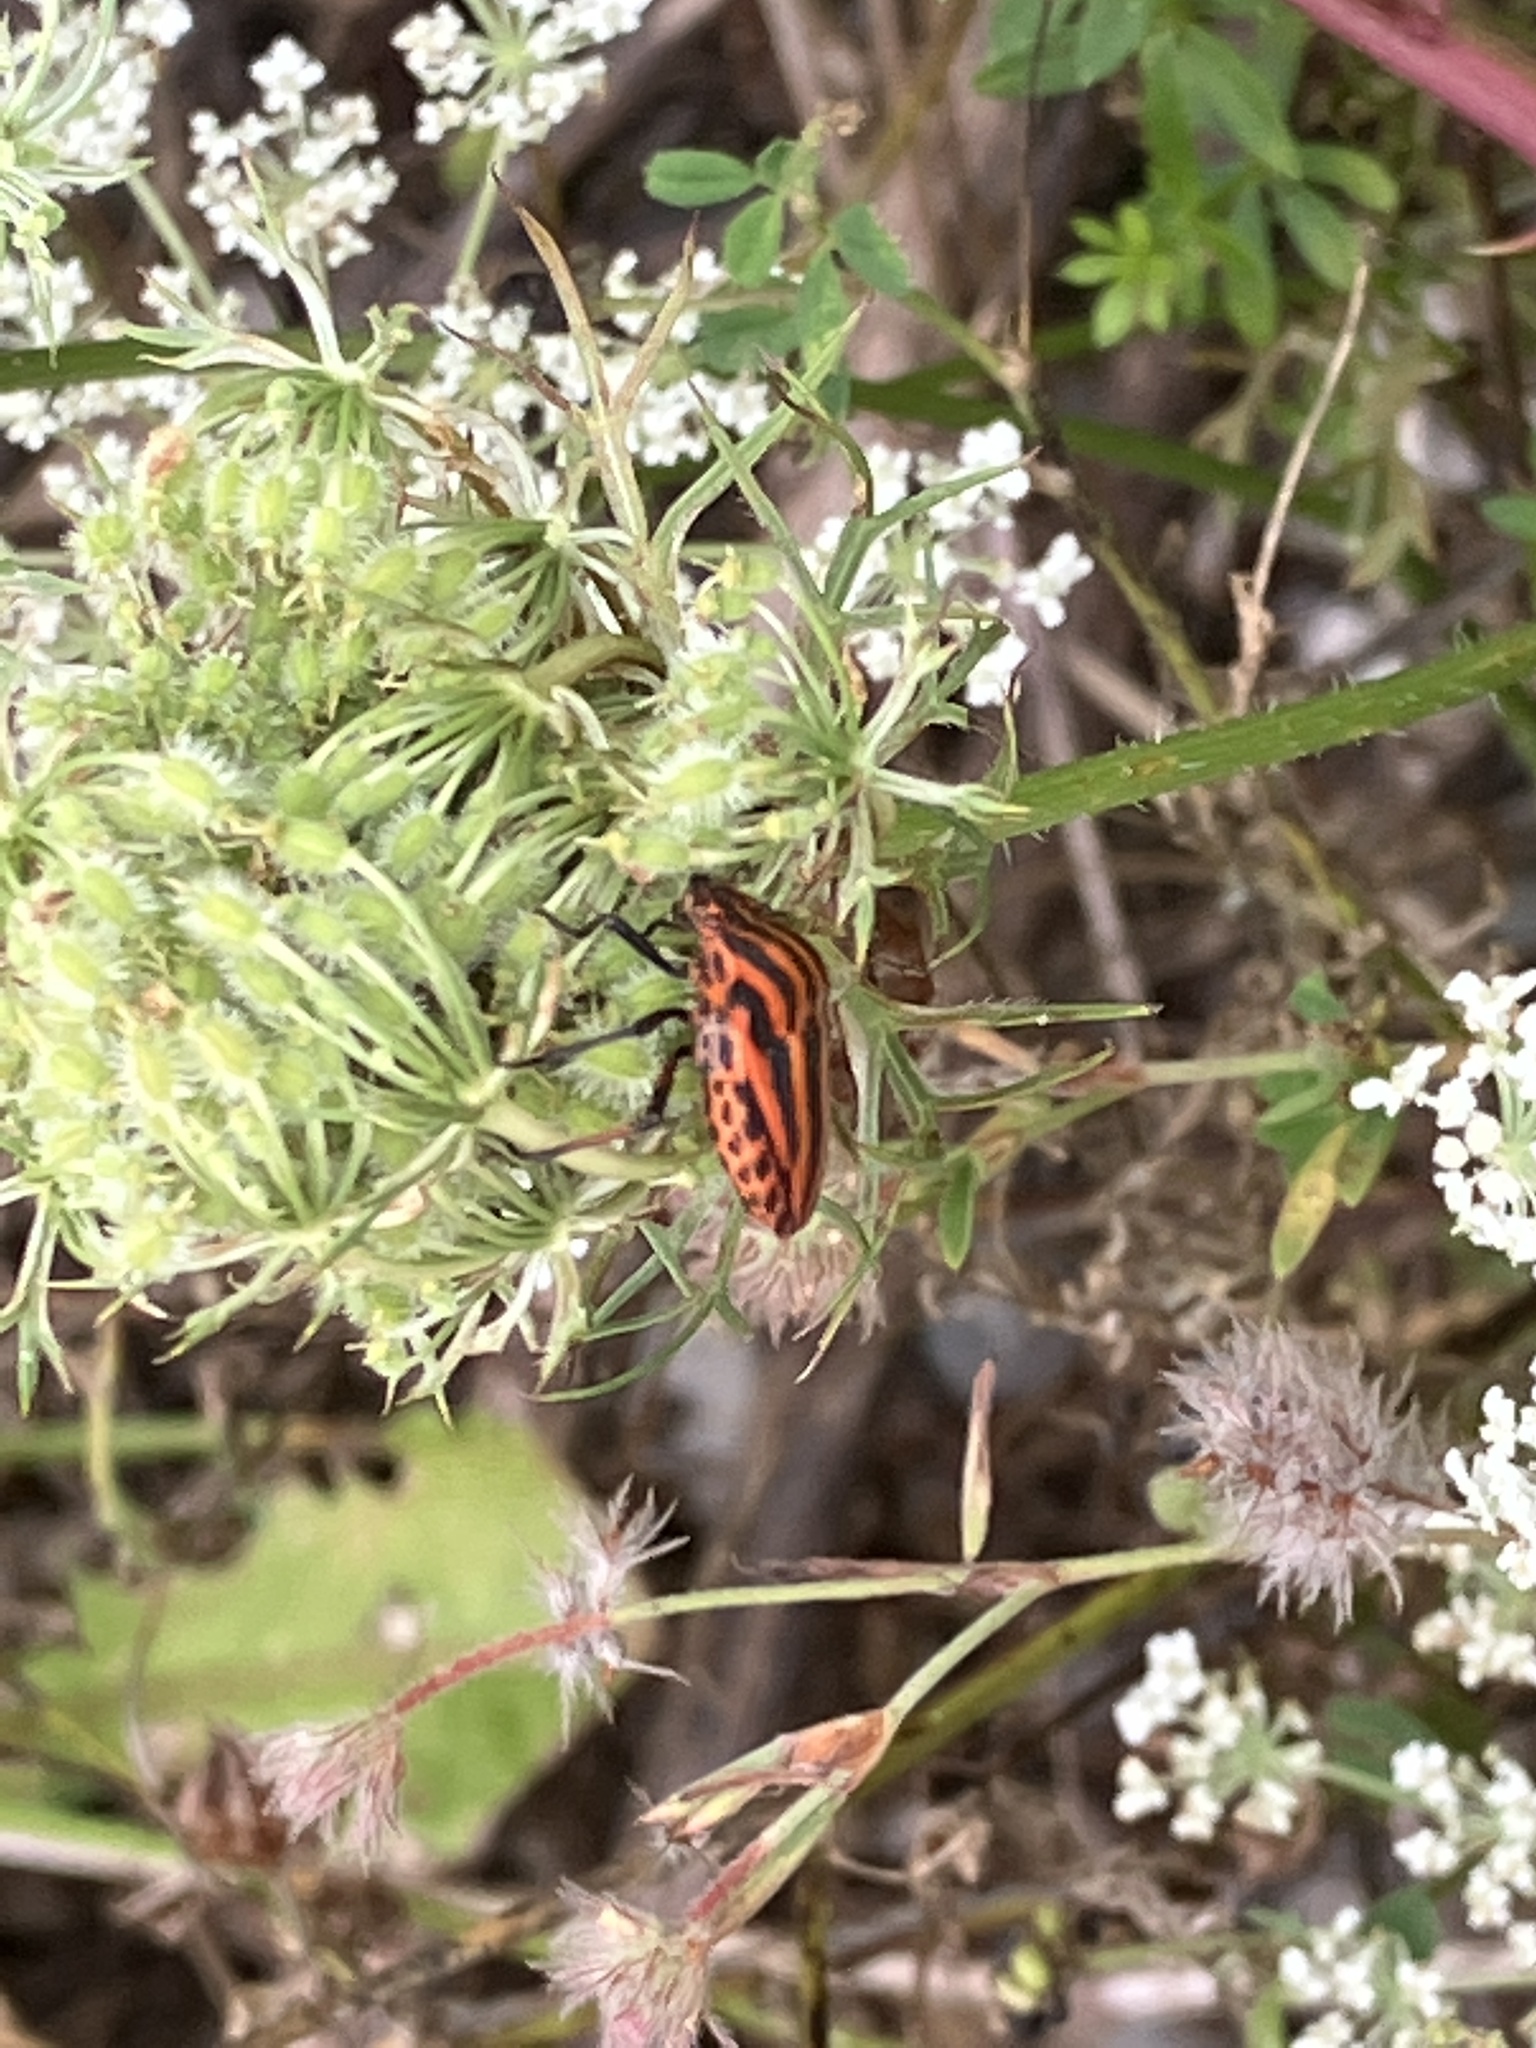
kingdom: Animalia
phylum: Arthropoda
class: Insecta
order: Hemiptera
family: Pentatomidae
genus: Graphosoma
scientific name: Graphosoma italicum
